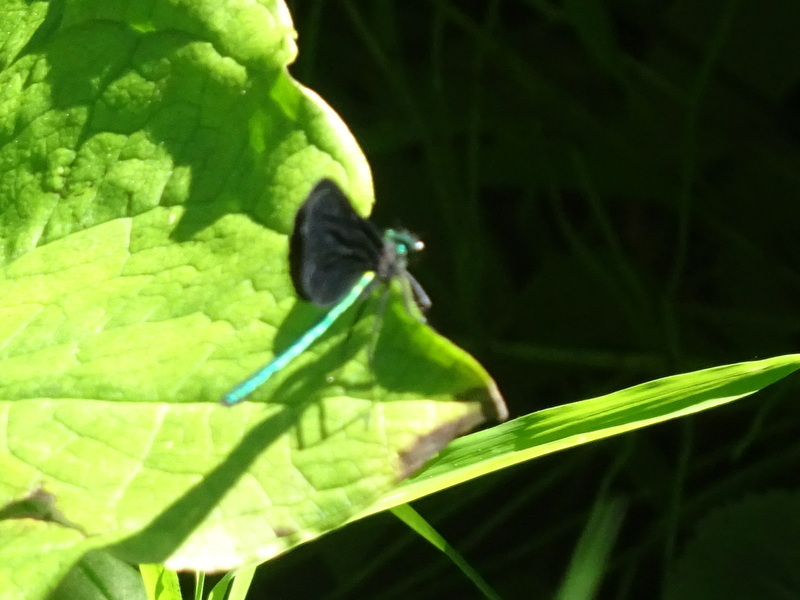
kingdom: Animalia
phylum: Arthropoda
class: Insecta
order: Odonata
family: Calopterygidae
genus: Calopteryx
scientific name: Calopteryx maculata
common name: Ebony jewelwing
